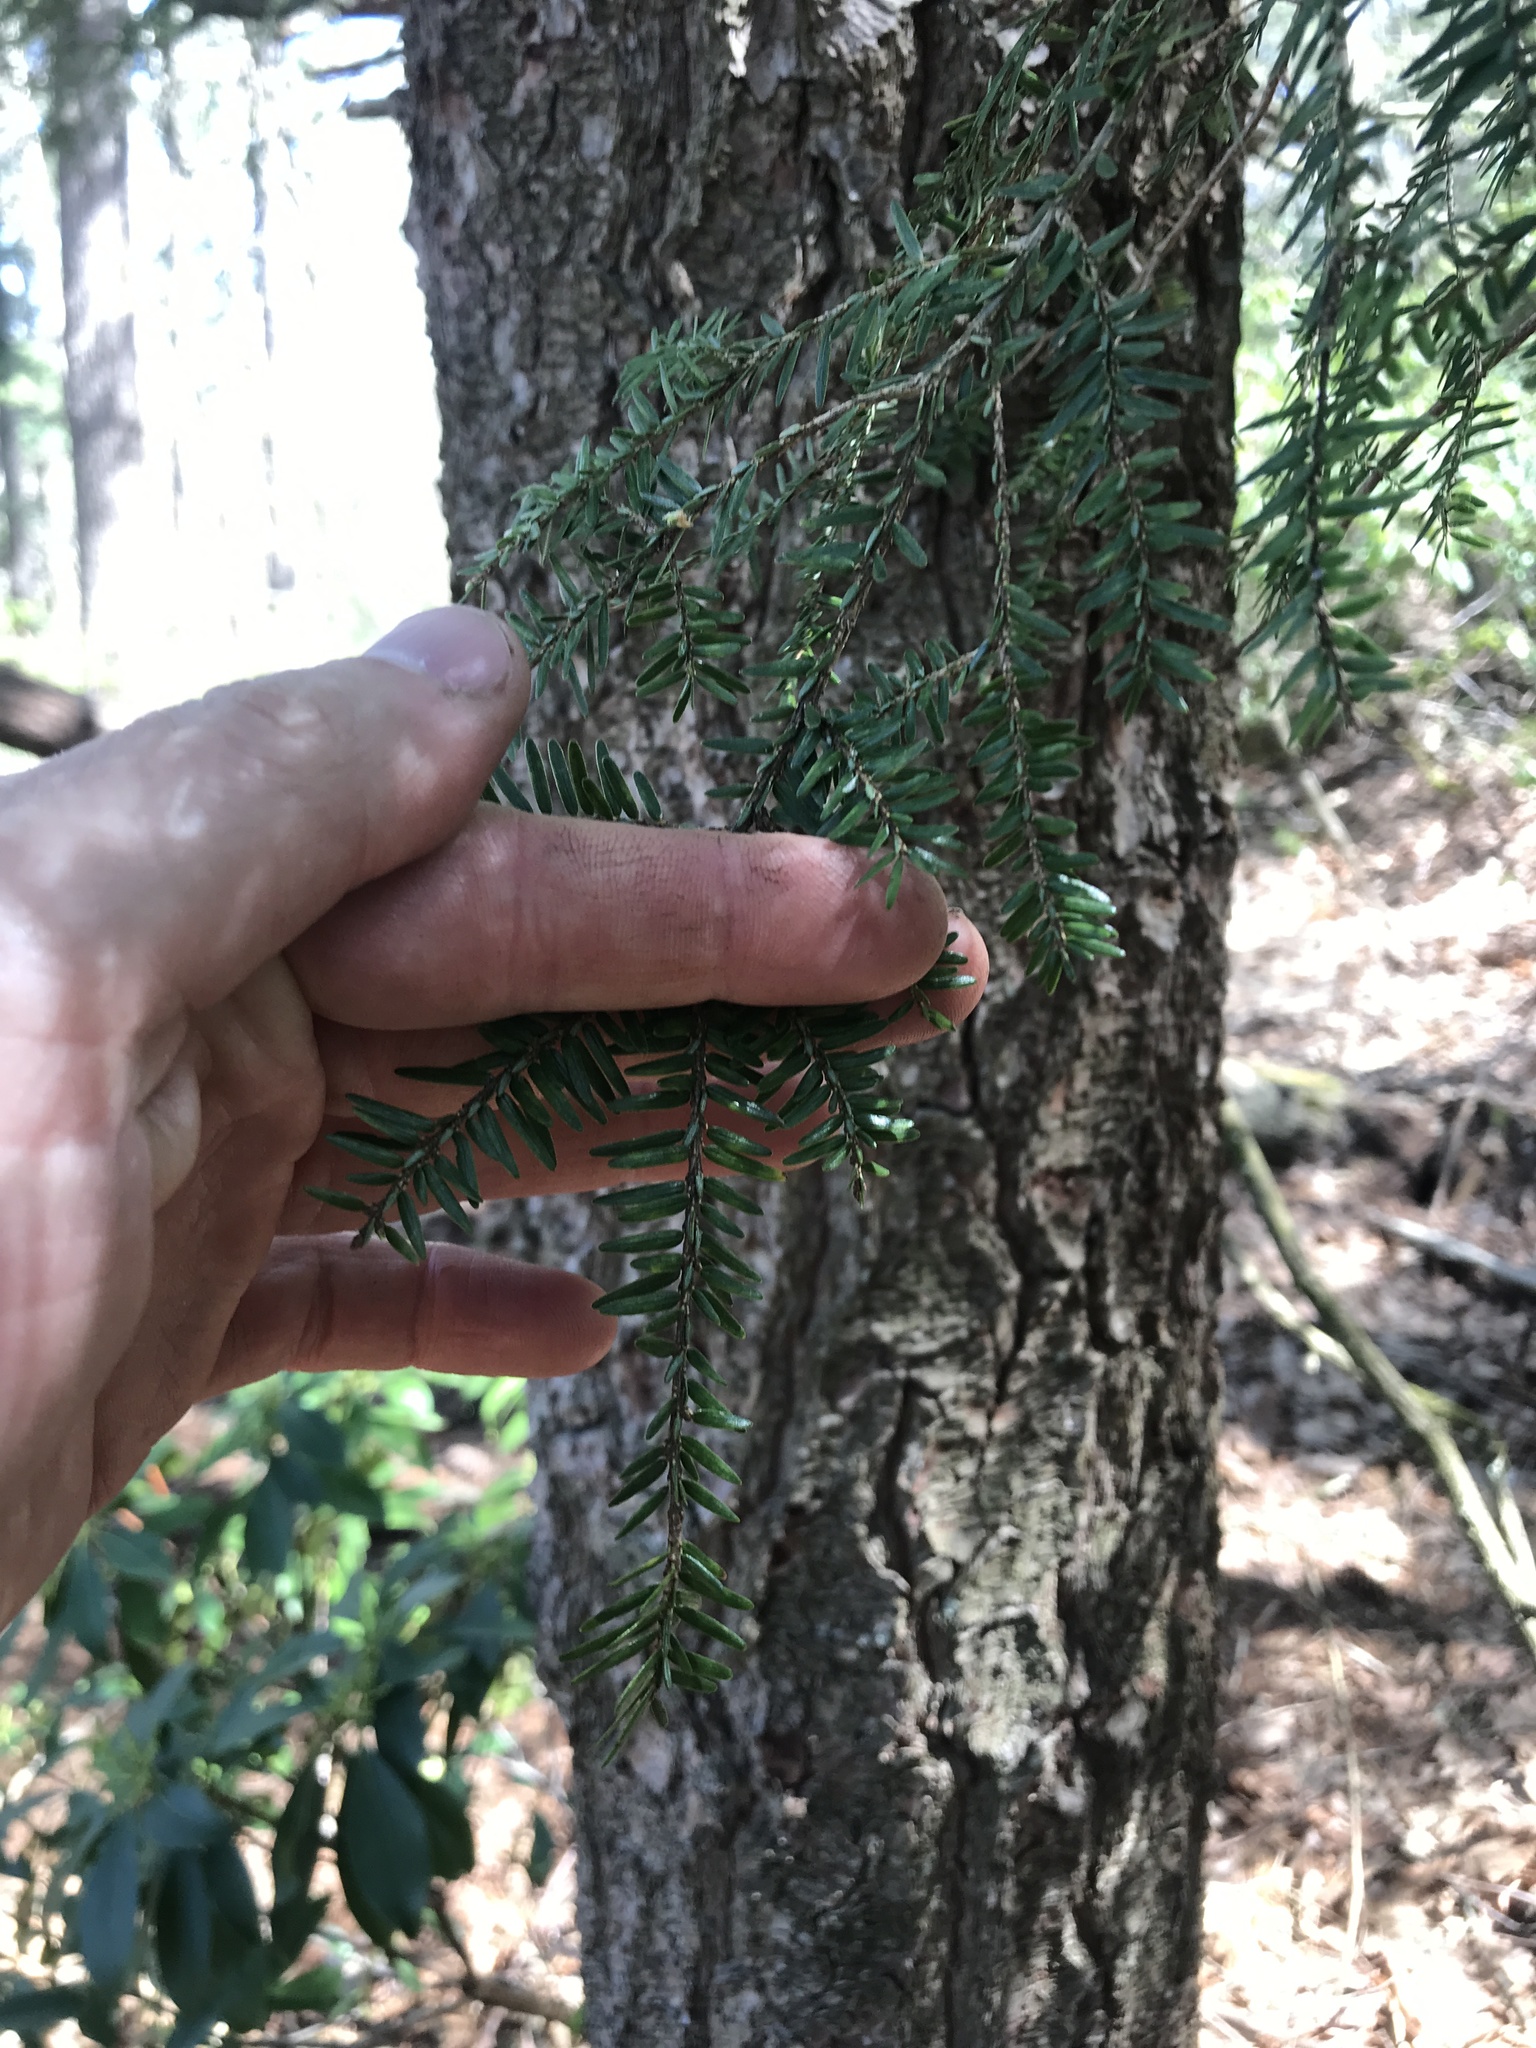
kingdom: Plantae
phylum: Tracheophyta
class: Pinopsida
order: Pinales
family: Pinaceae
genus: Tsuga
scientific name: Tsuga canadensis
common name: Eastern hemlock
